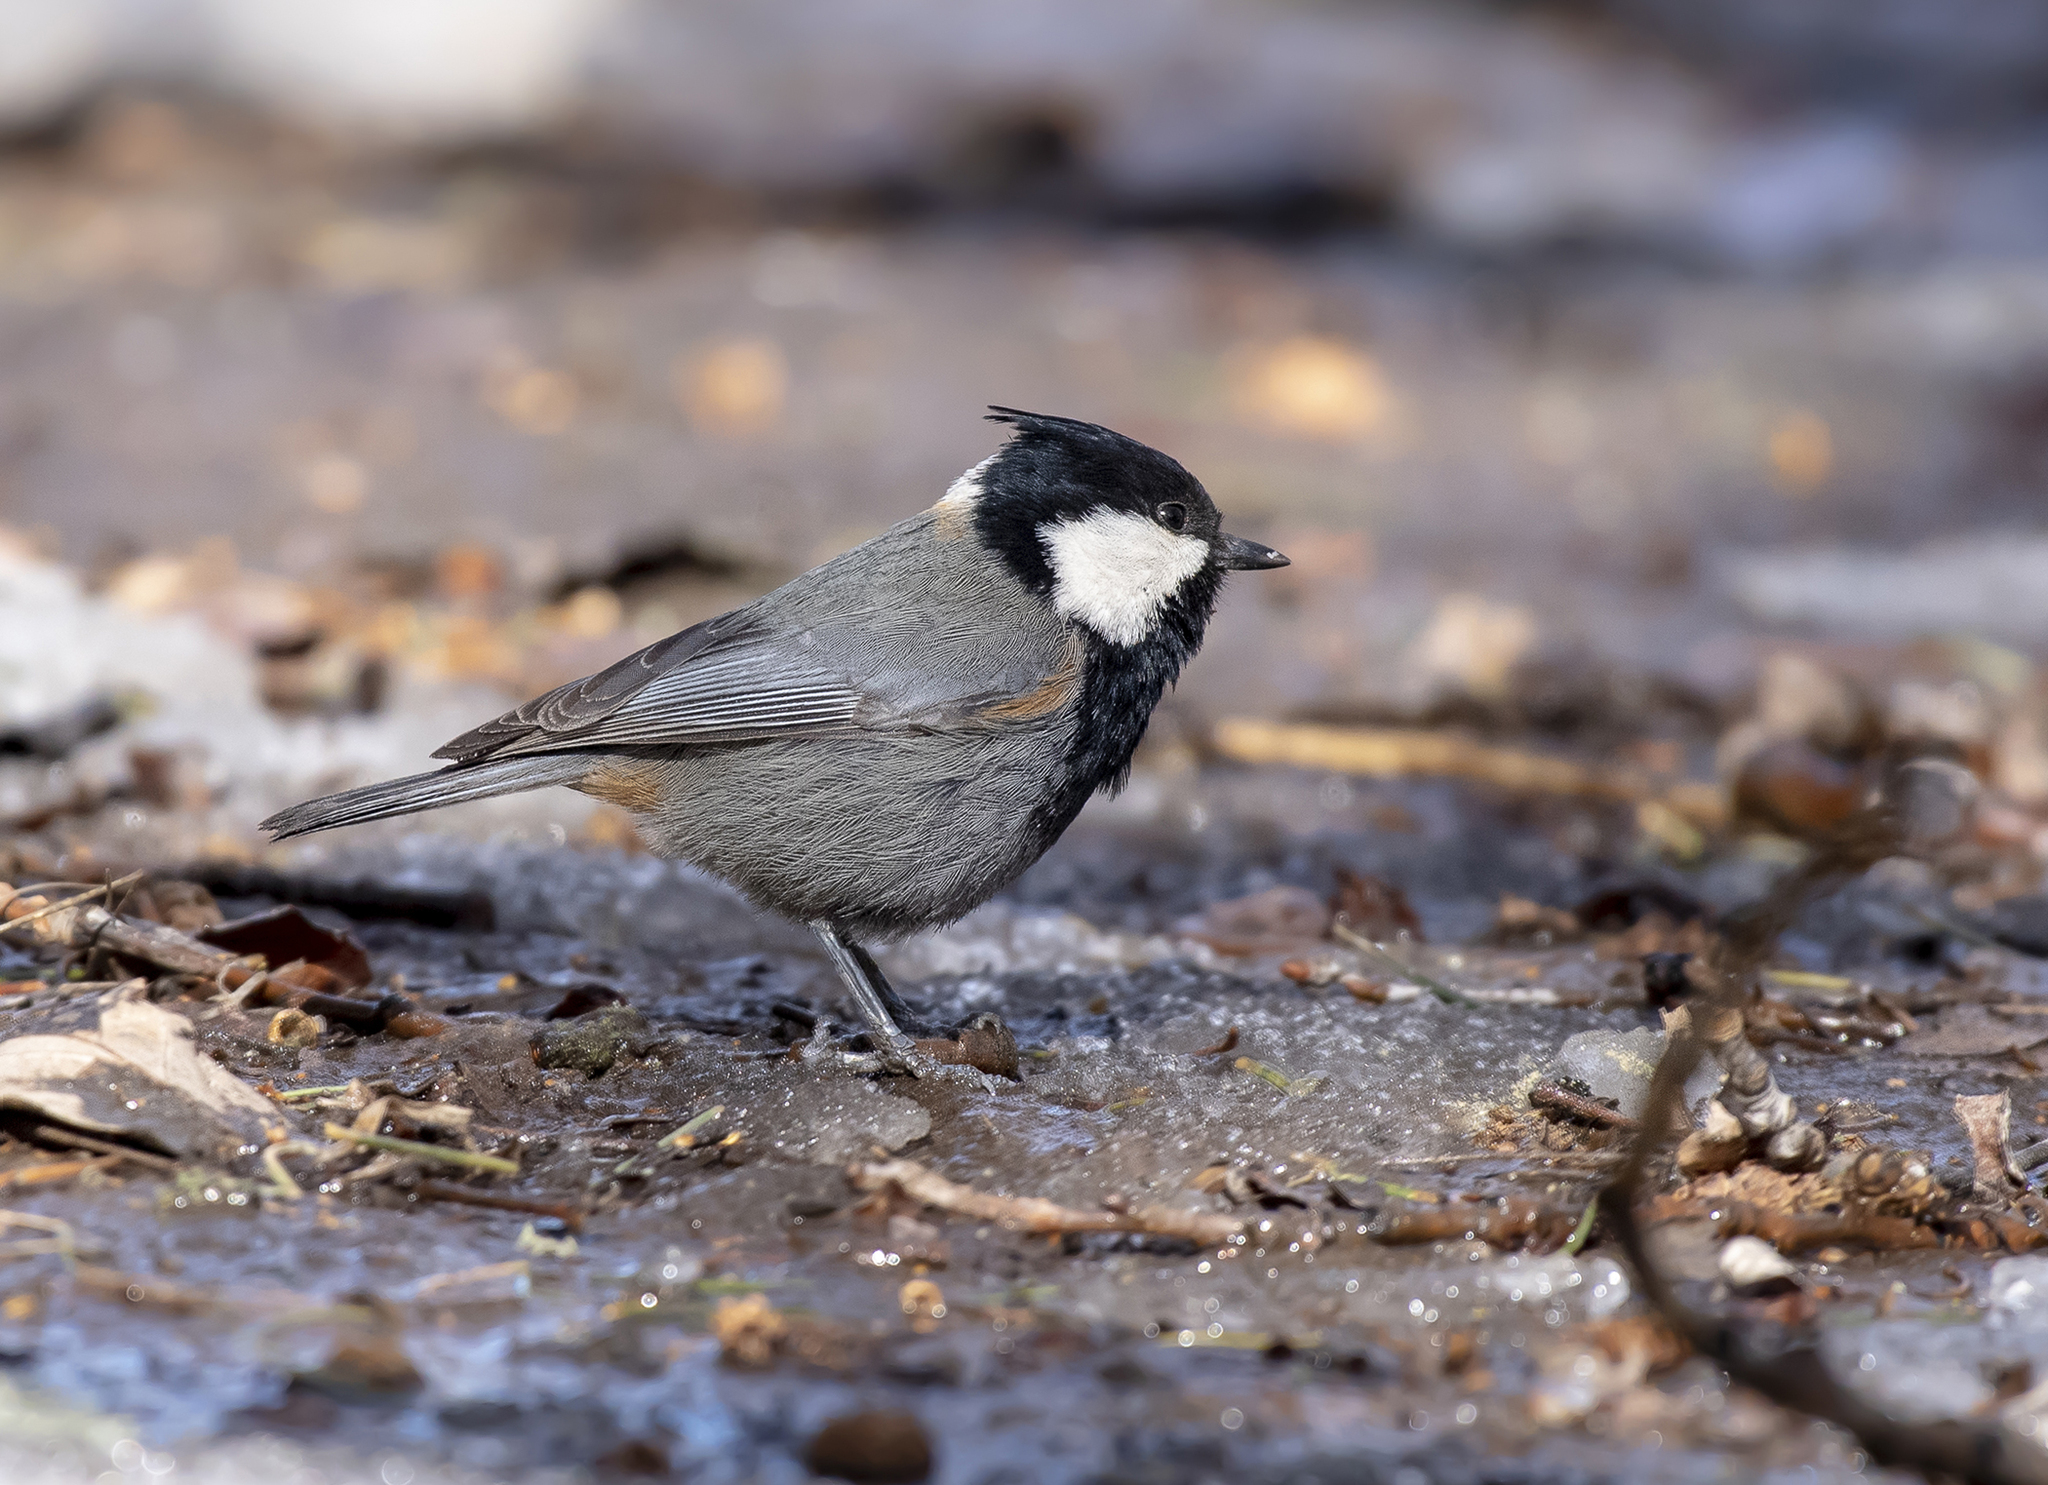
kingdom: Animalia
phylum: Chordata
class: Aves
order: Passeriformes
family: Paridae
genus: Periparus
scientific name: Periparus rufonuchalis
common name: Rufous-naped tit
